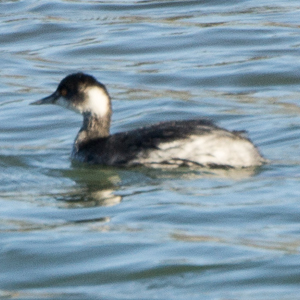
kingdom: Animalia
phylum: Chordata
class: Aves
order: Podicipediformes
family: Podicipedidae
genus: Podiceps
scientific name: Podiceps nigricollis
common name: Black-necked grebe
